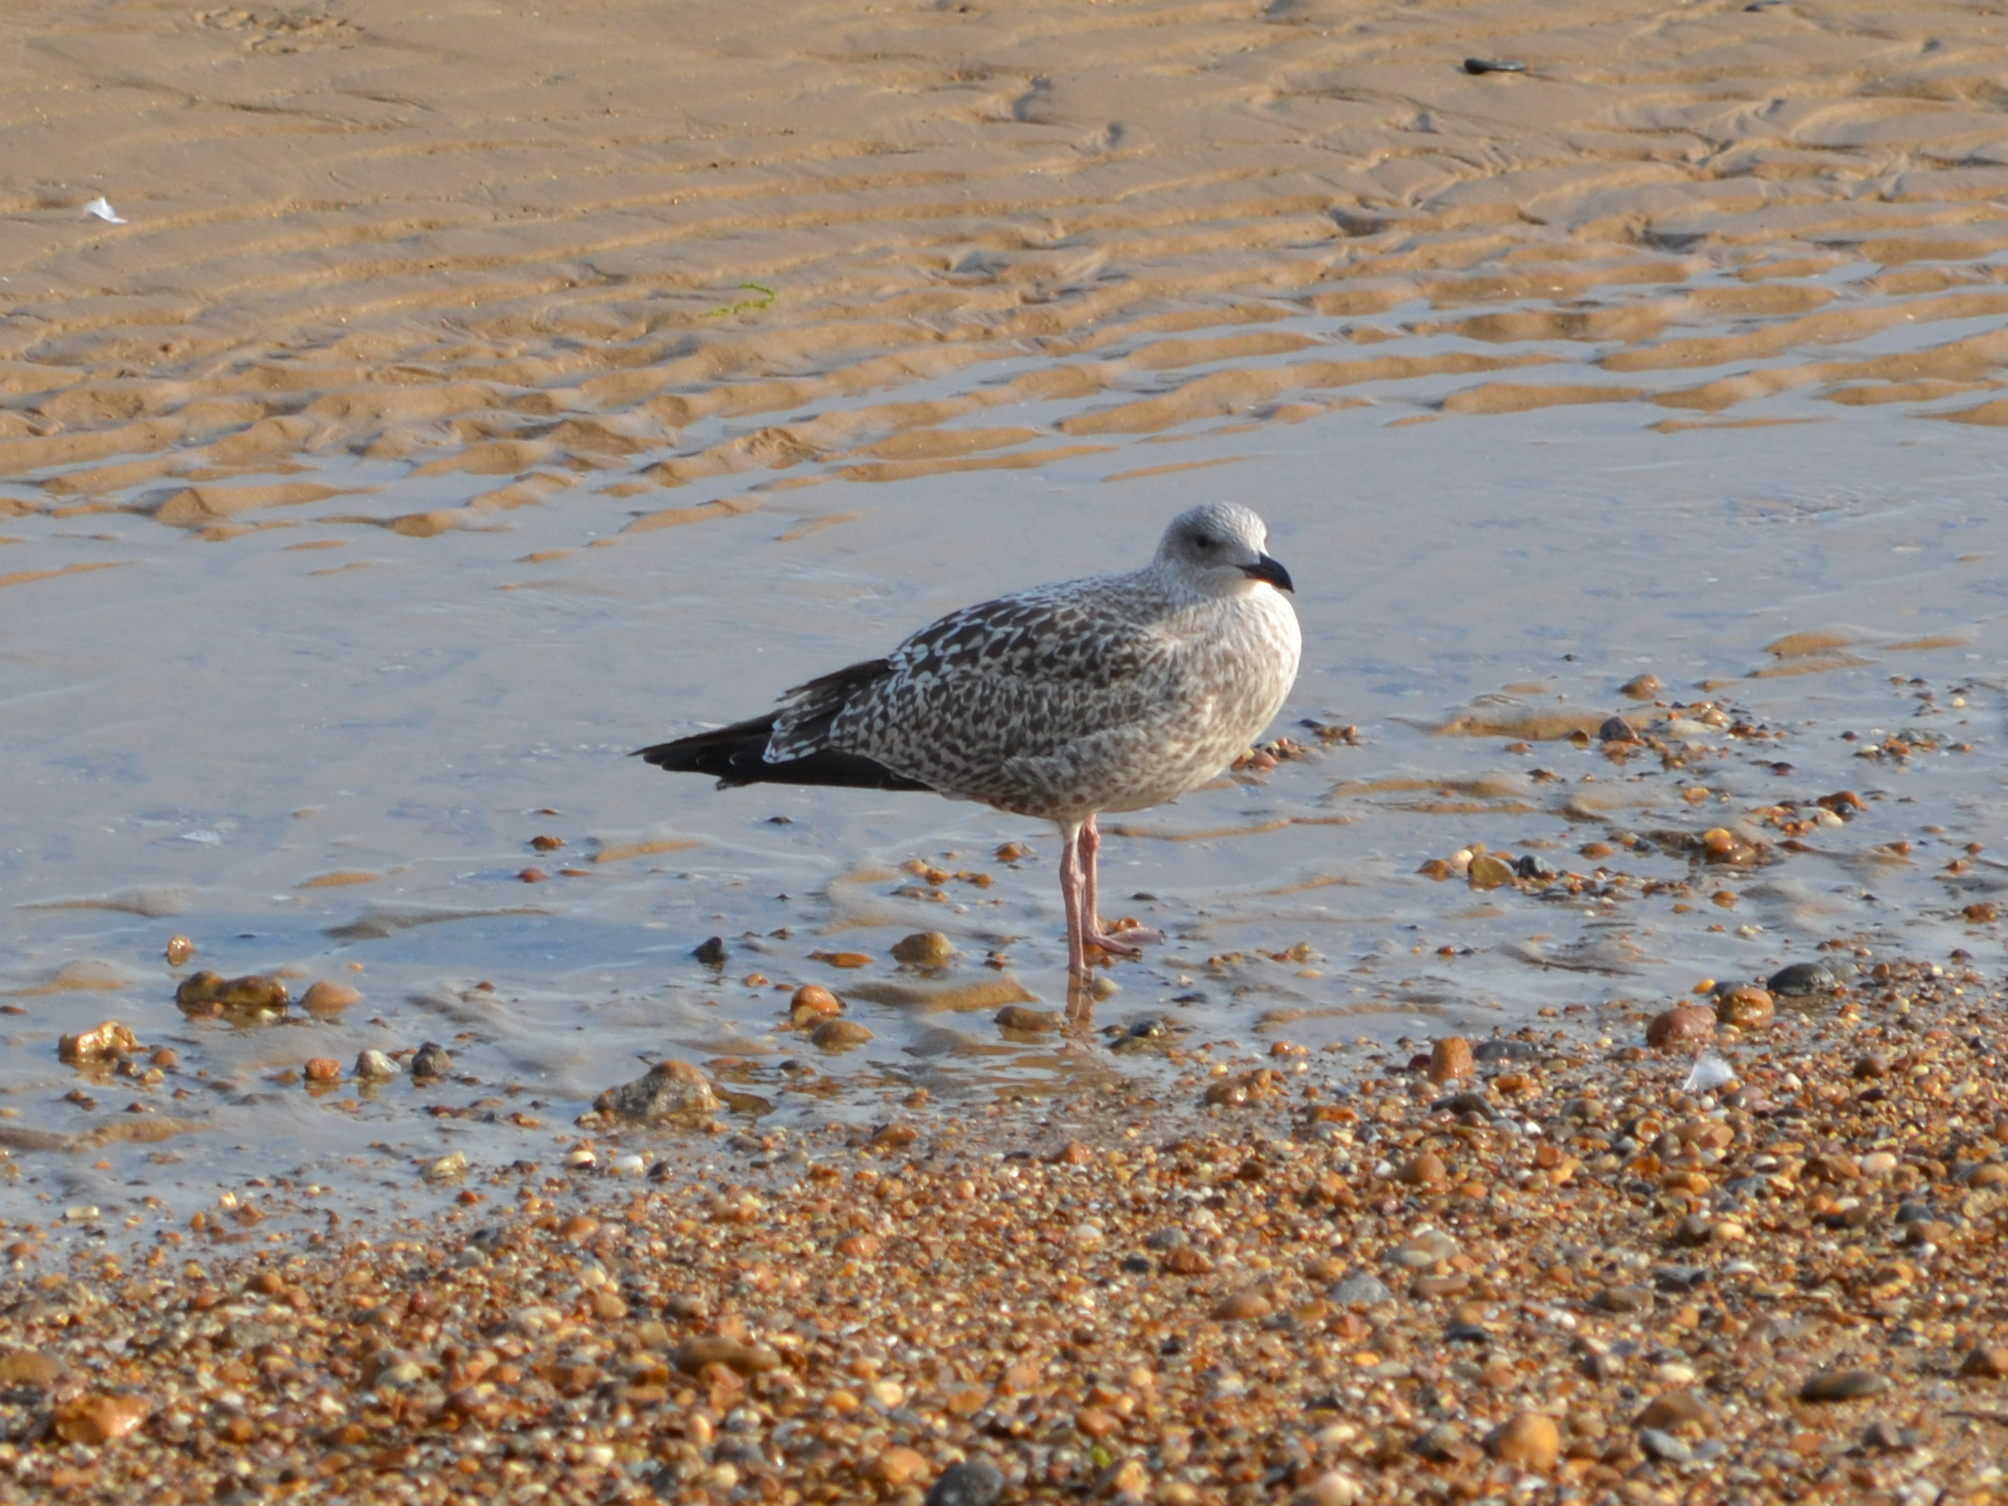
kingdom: Animalia
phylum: Chordata
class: Aves
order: Charadriiformes
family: Laridae
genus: Larus
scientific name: Larus argentatus
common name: Herring gull
